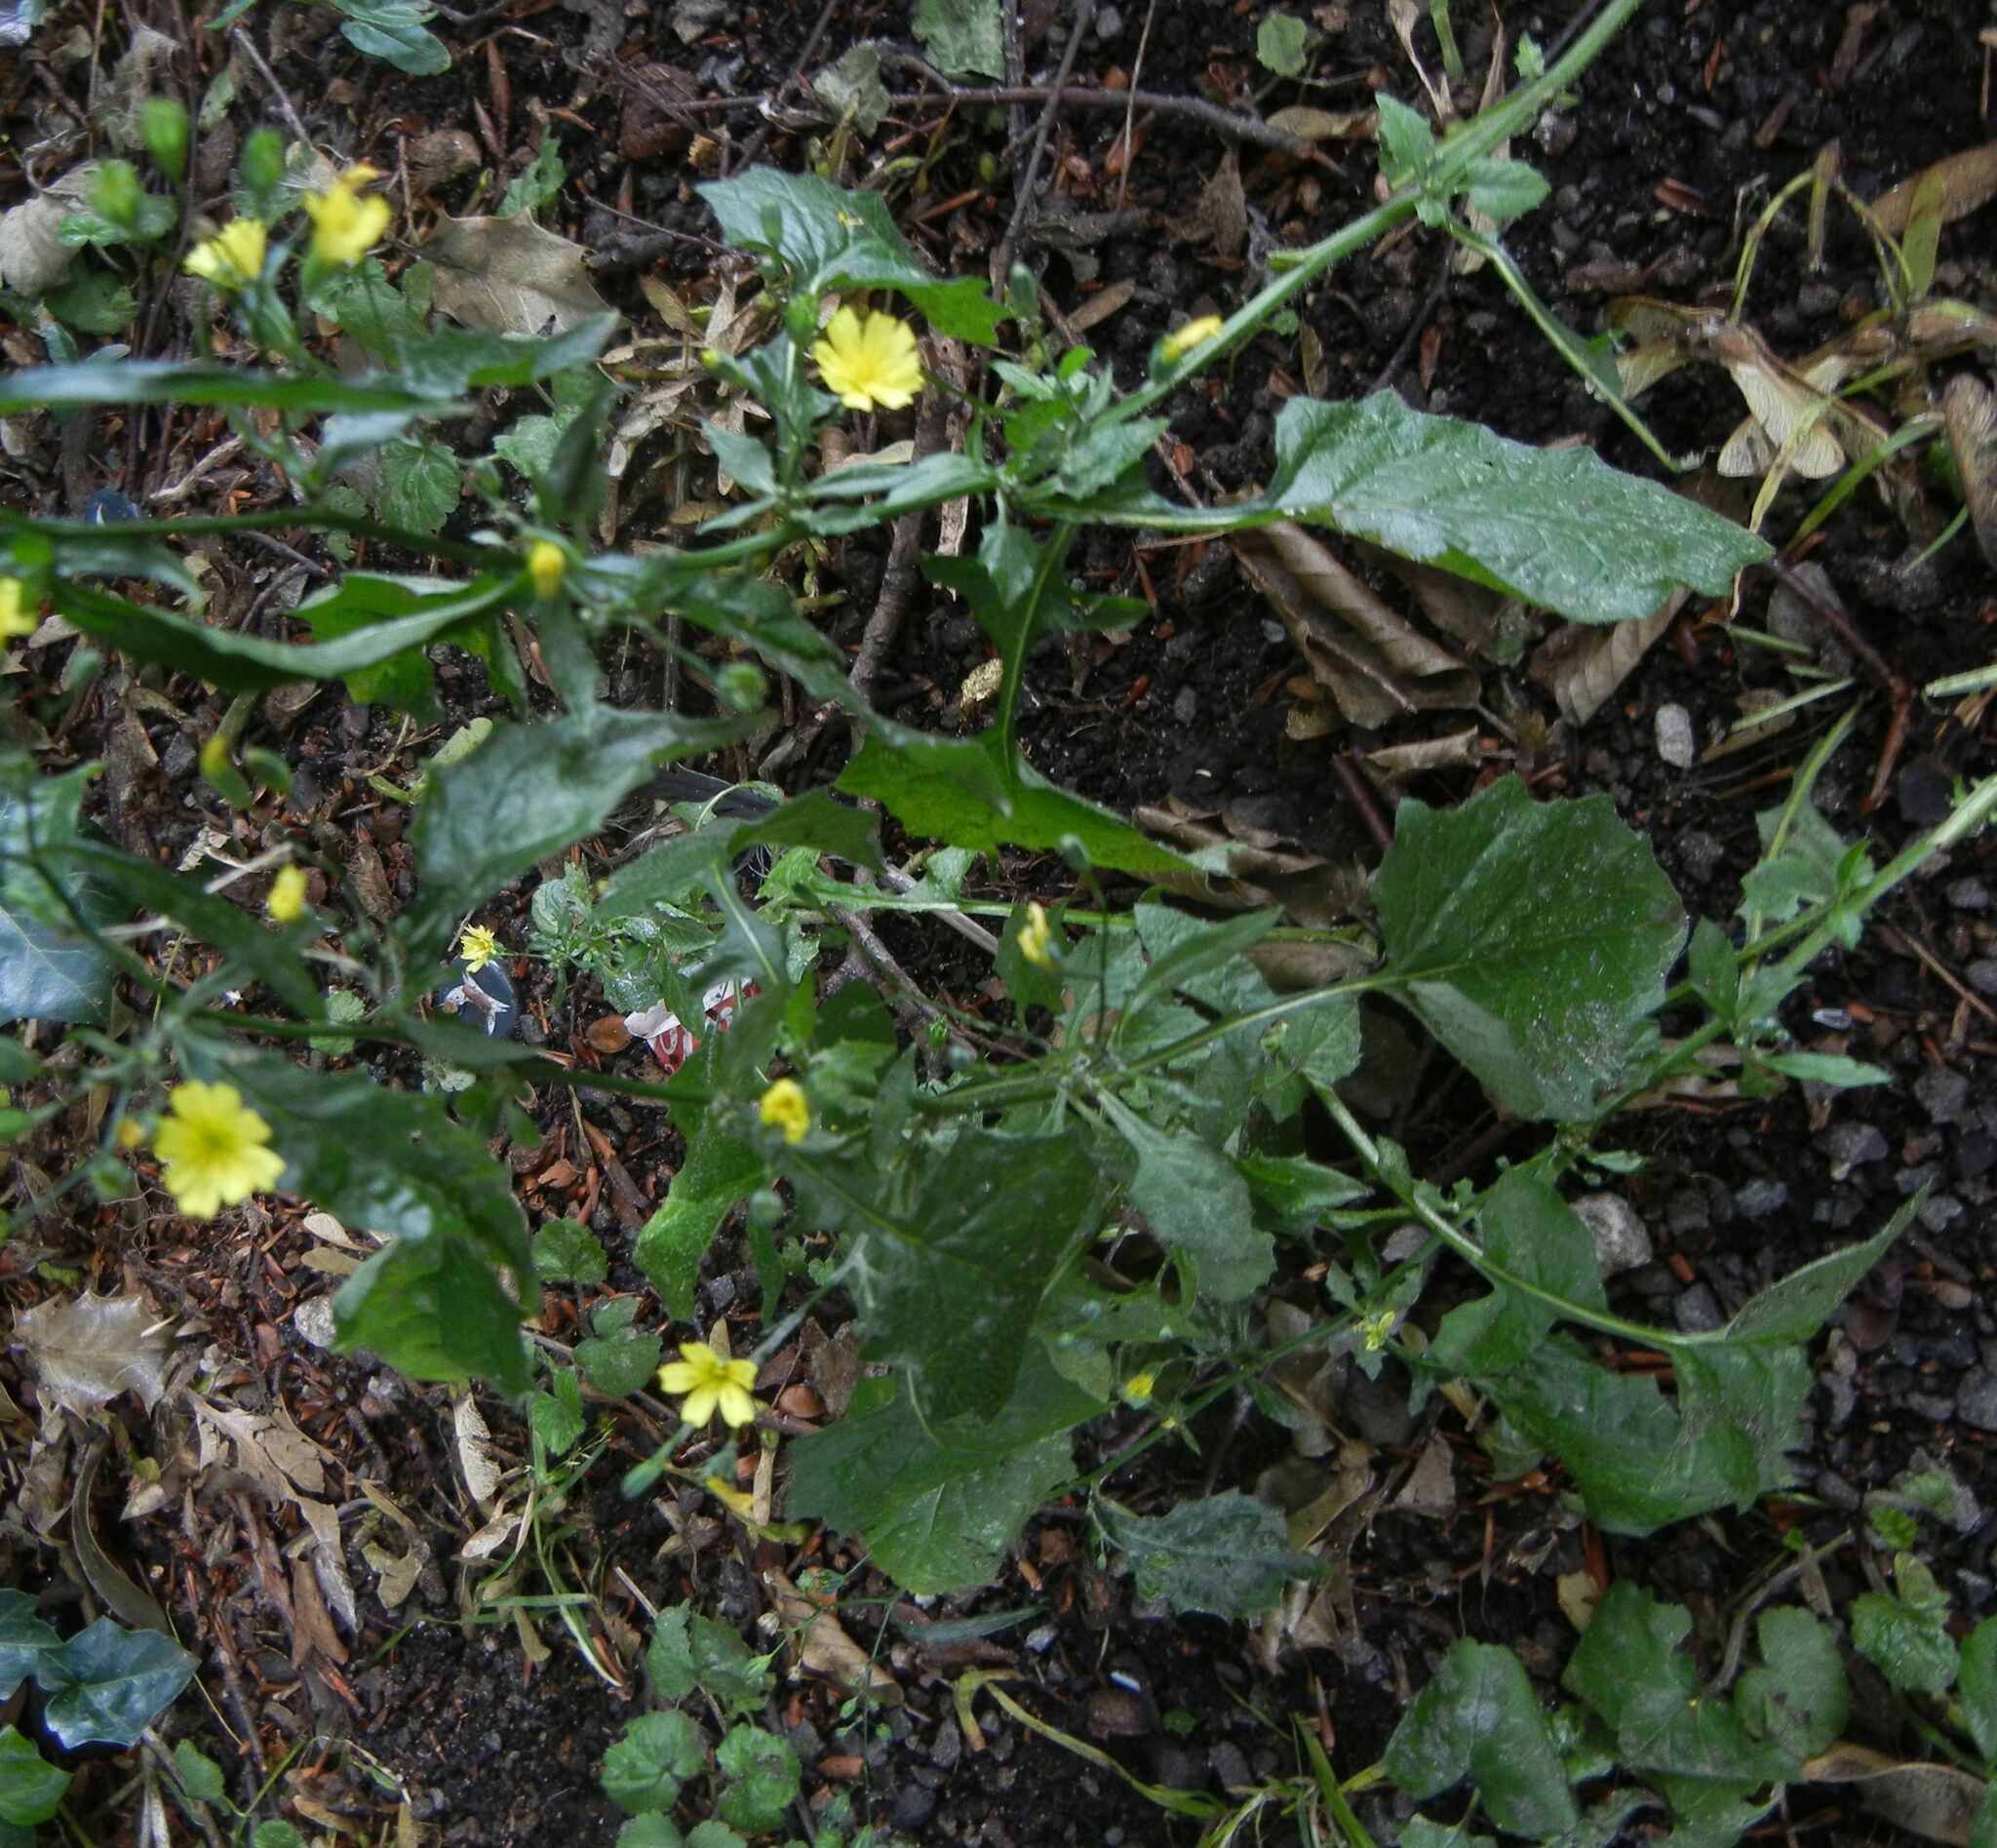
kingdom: Plantae
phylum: Tracheophyta
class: Magnoliopsida
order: Asterales
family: Asteraceae
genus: Lapsana
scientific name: Lapsana communis
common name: Nipplewort
